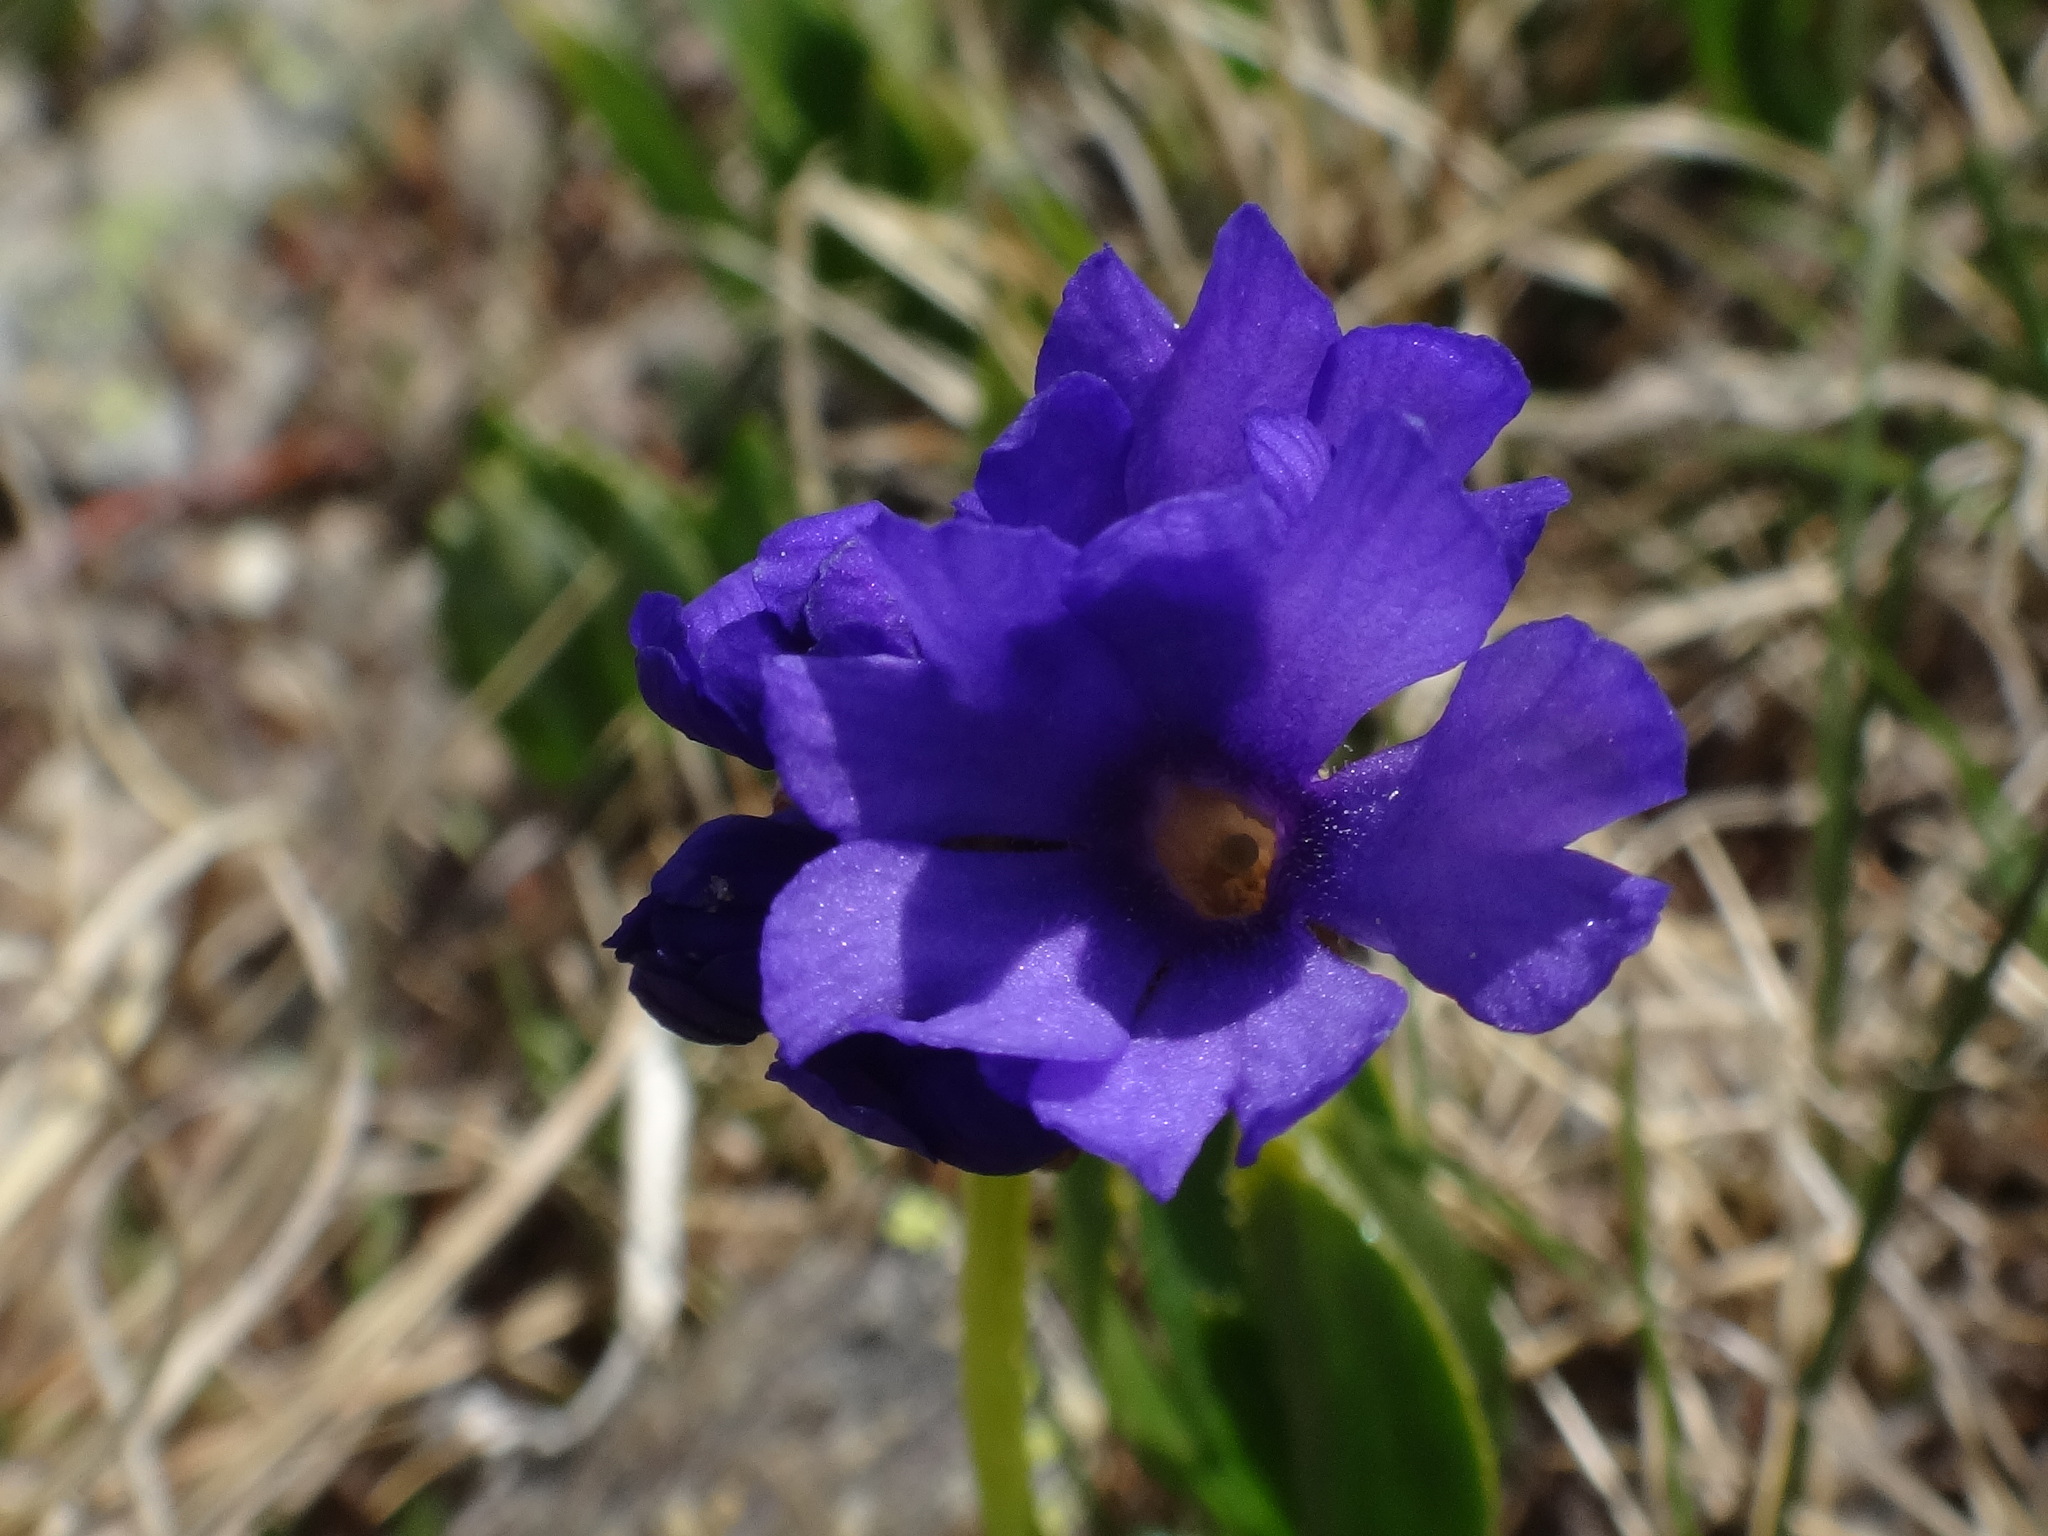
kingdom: Plantae
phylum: Tracheophyta
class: Magnoliopsida
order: Ericales
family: Primulaceae
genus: Primula
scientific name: Primula glutinosa
